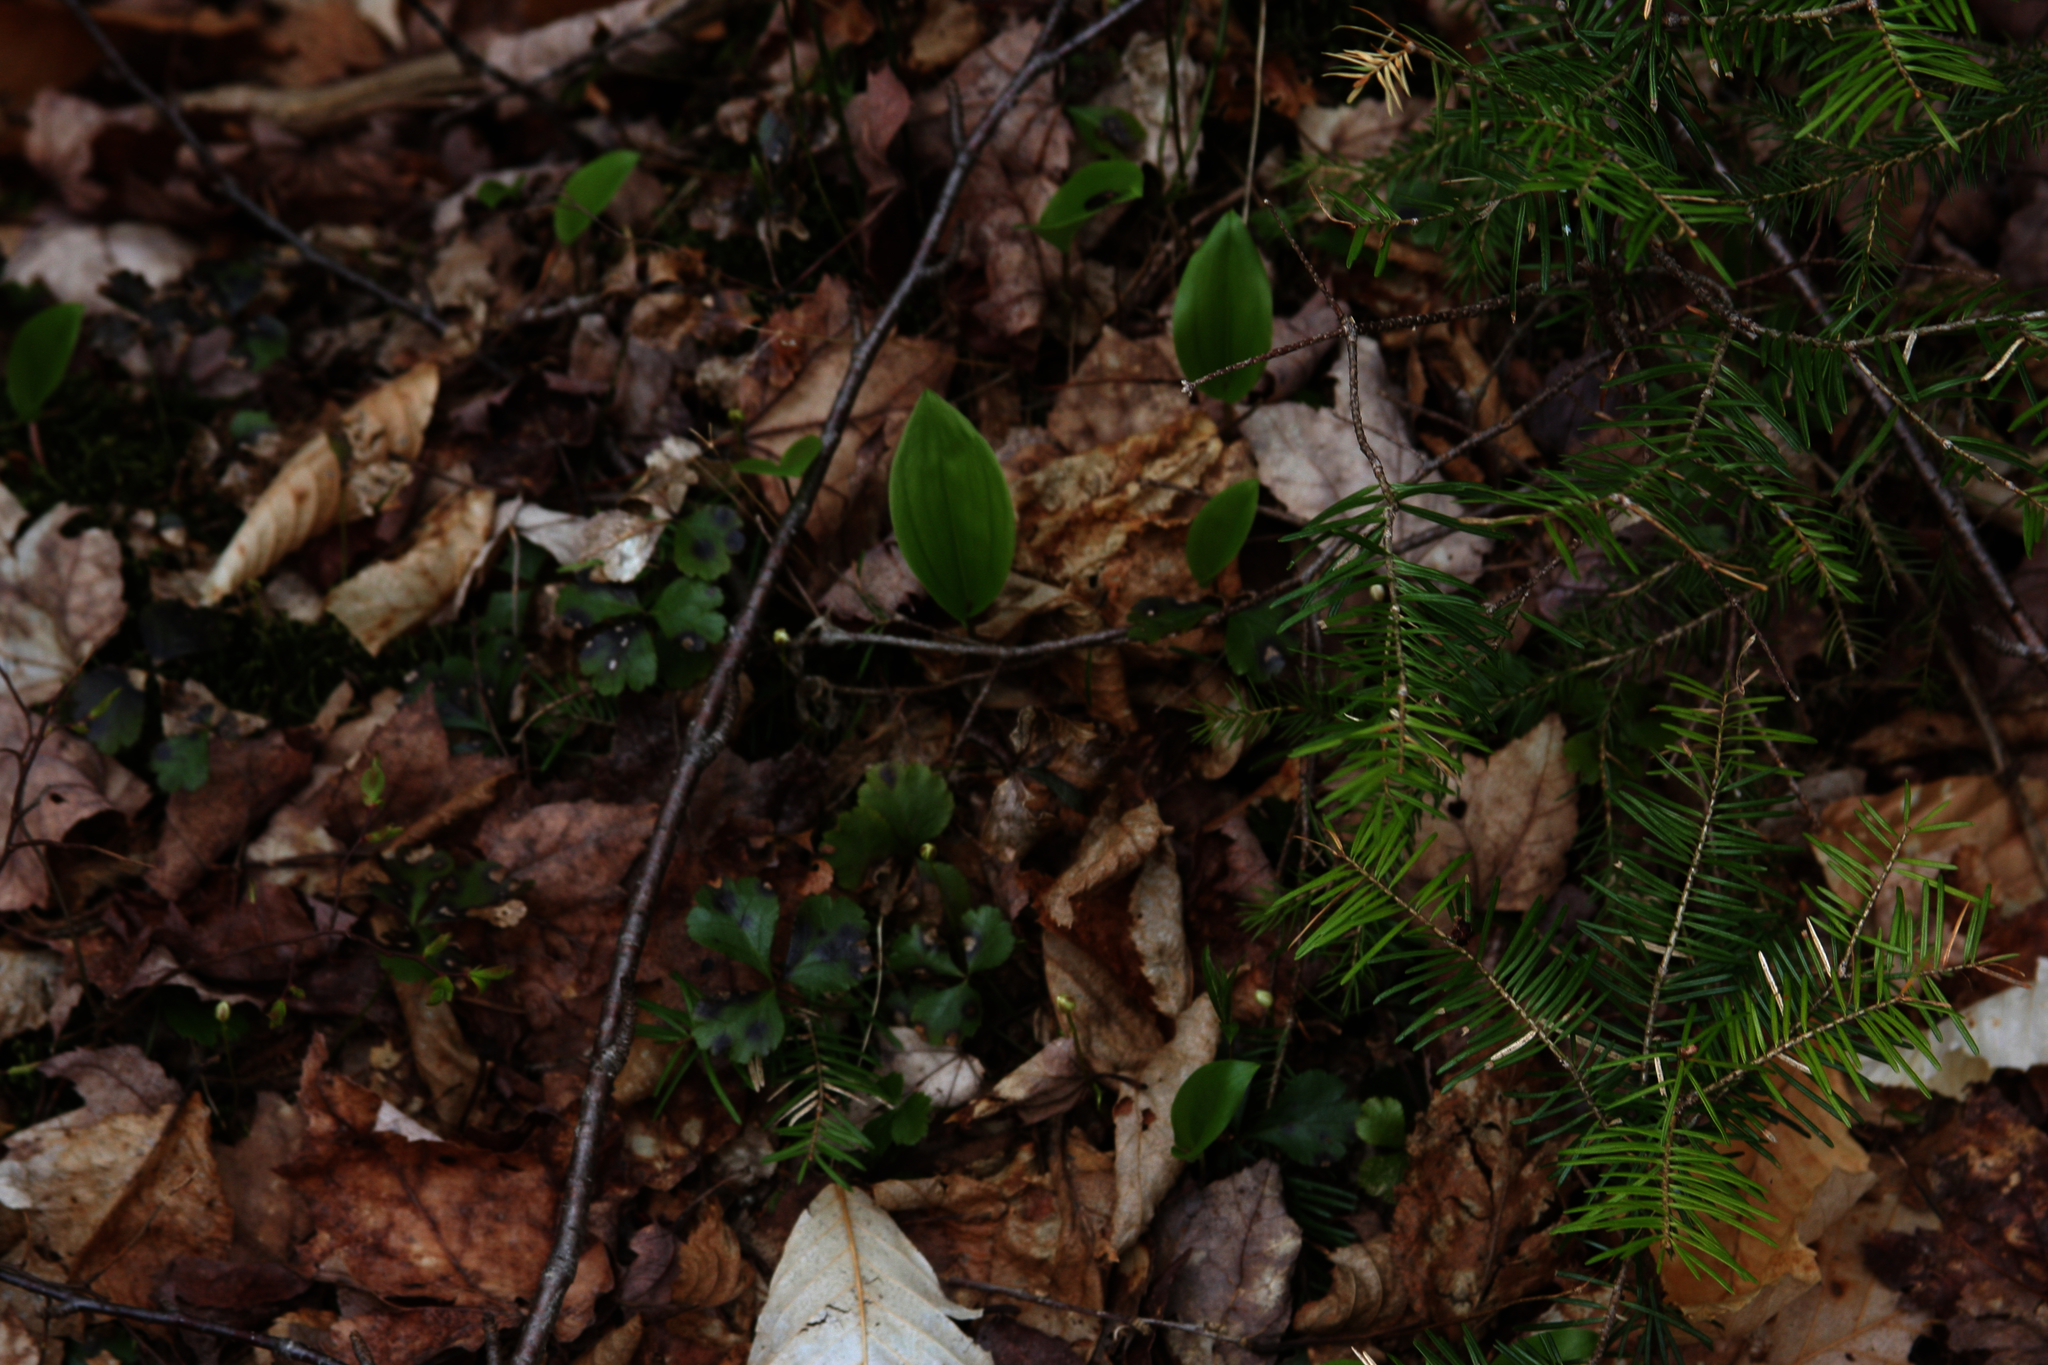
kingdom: Plantae
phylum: Tracheophyta
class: Liliopsida
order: Asparagales
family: Asparagaceae
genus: Maianthemum
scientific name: Maianthemum canadense
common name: False lily-of-the-valley
